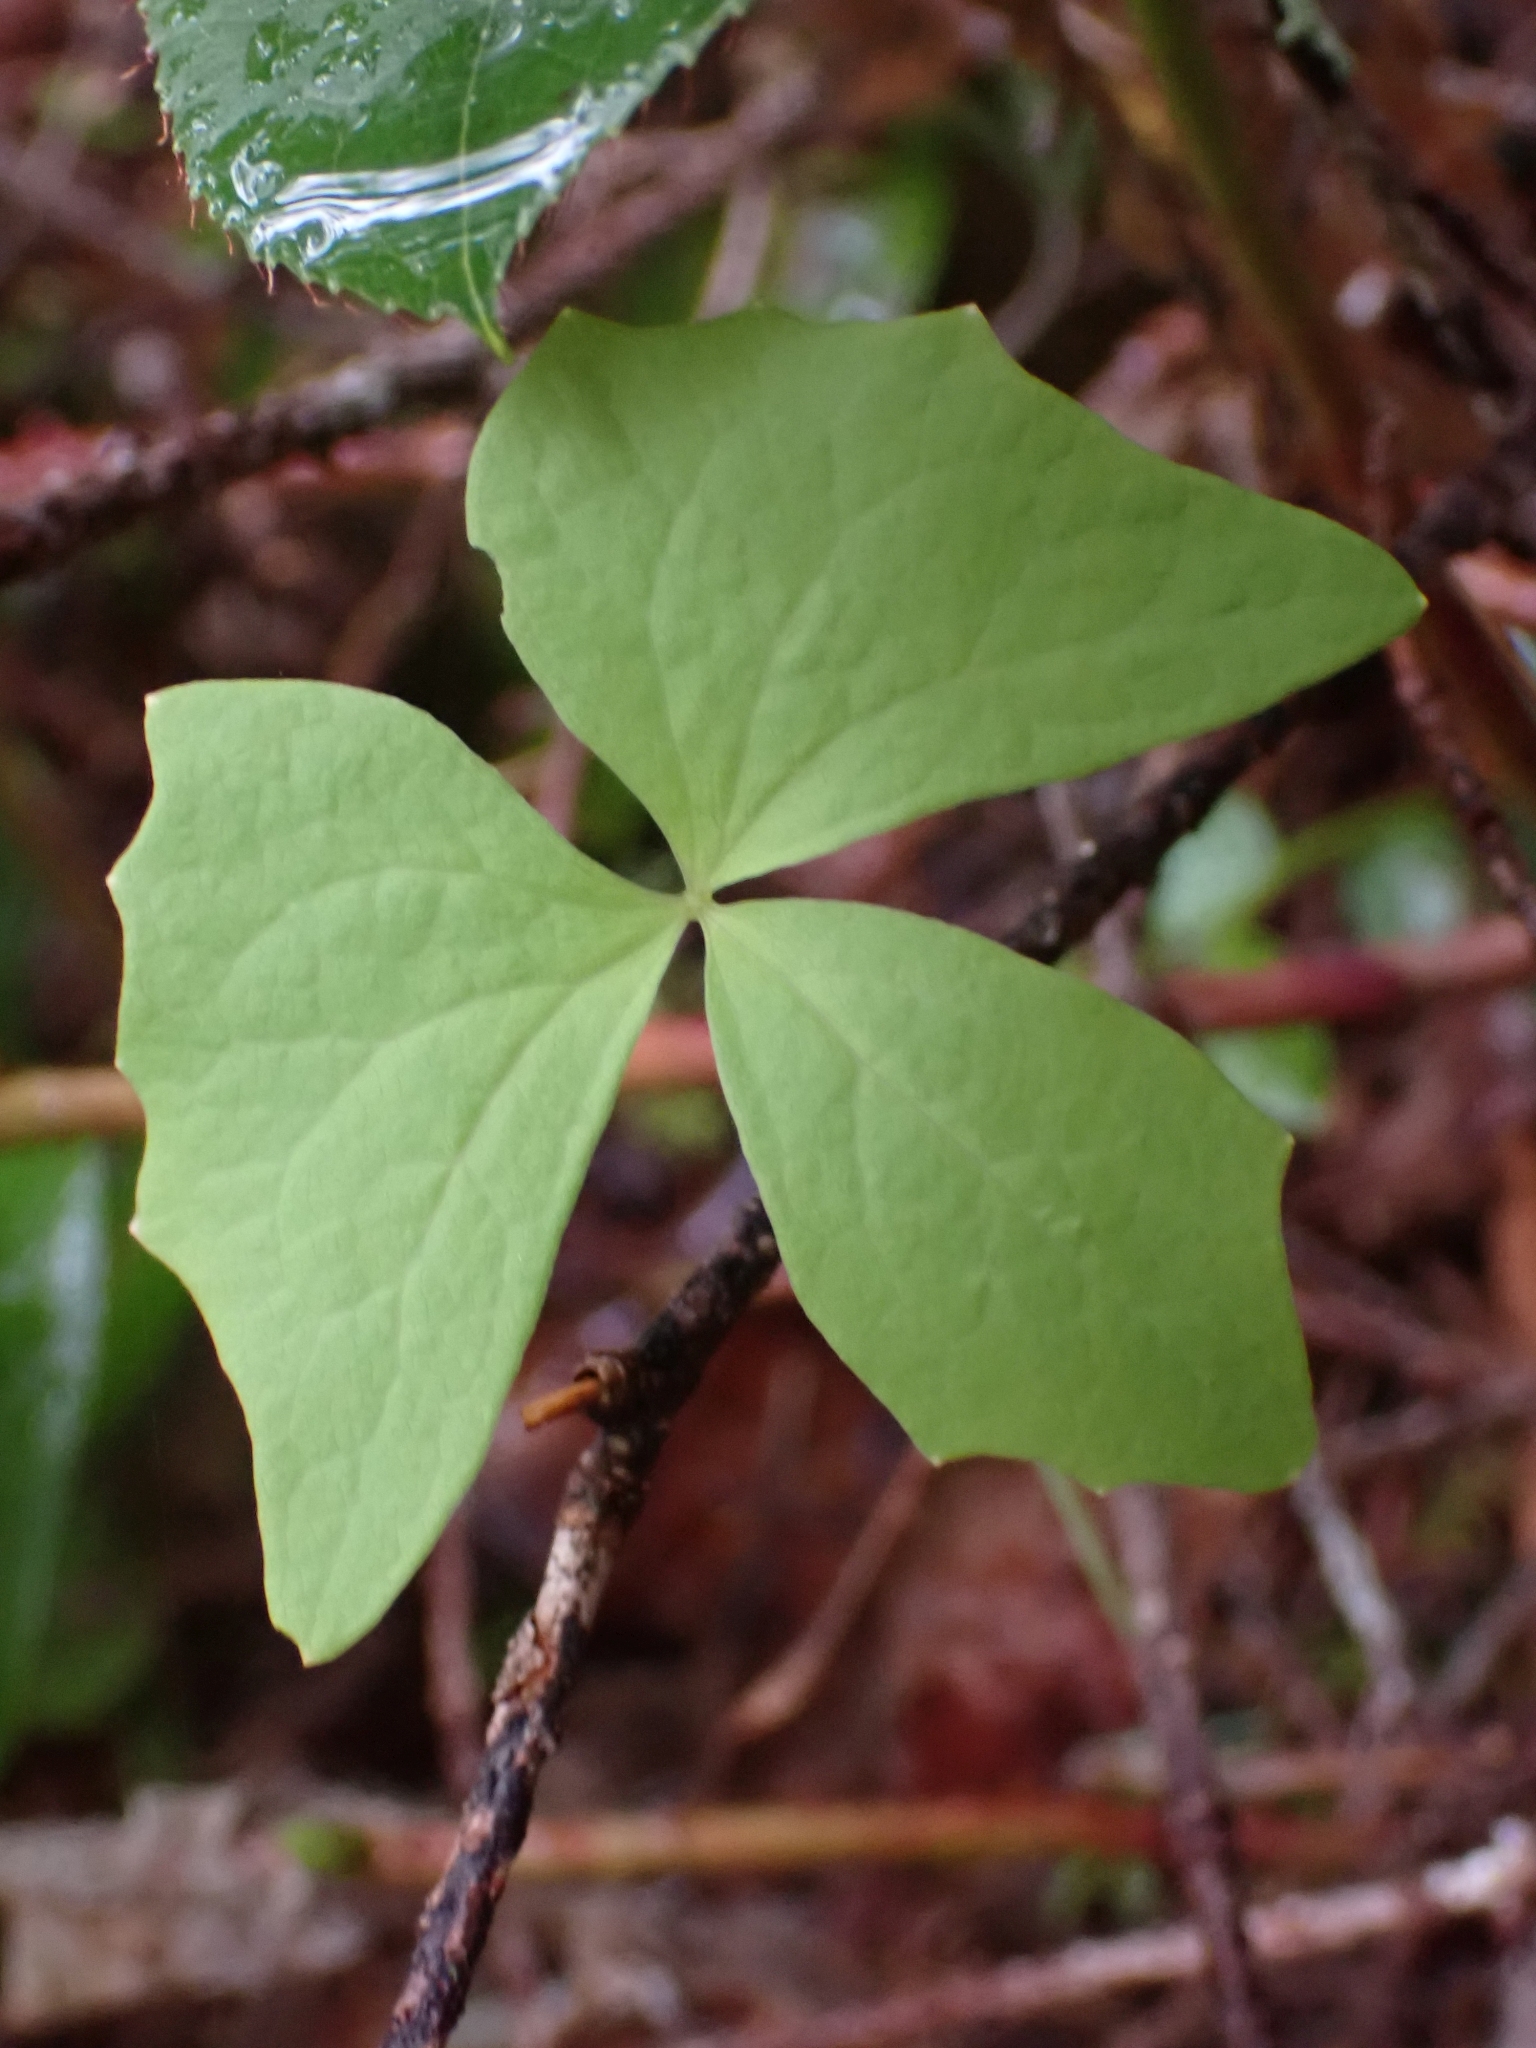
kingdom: Plantae
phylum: Tracheophyta
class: Magnoliopsida
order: Ranunculales
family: Berberidaceae
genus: Achlys
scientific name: Achlys triphylla
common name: Vanilla-leaf
